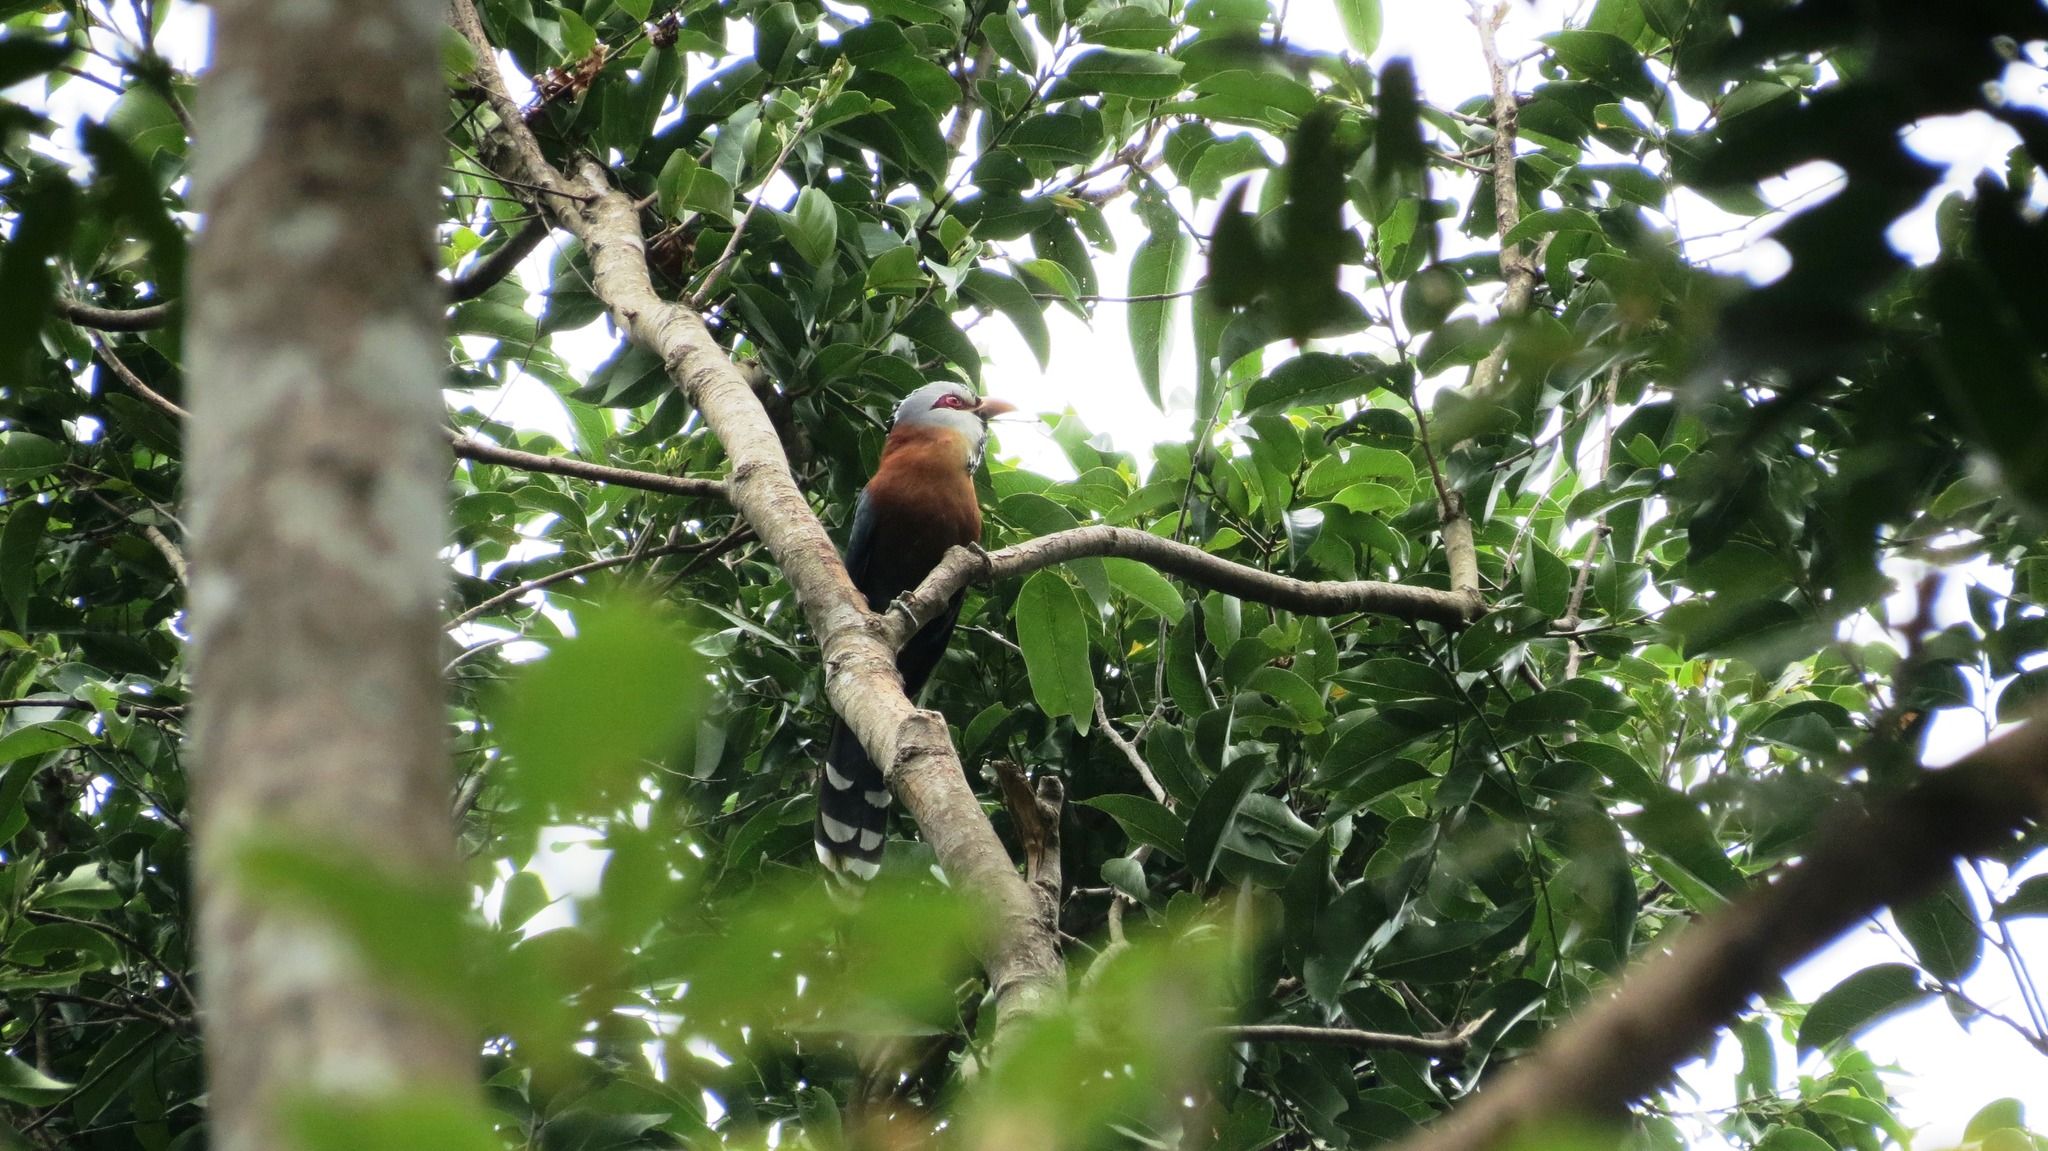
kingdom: Animalia
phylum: Chordata
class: Aves
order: Cuculiformes
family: Cuculidae
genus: Lepidogrammus
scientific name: Lepidogrammus cumingi
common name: Scale-feathered malkoha
